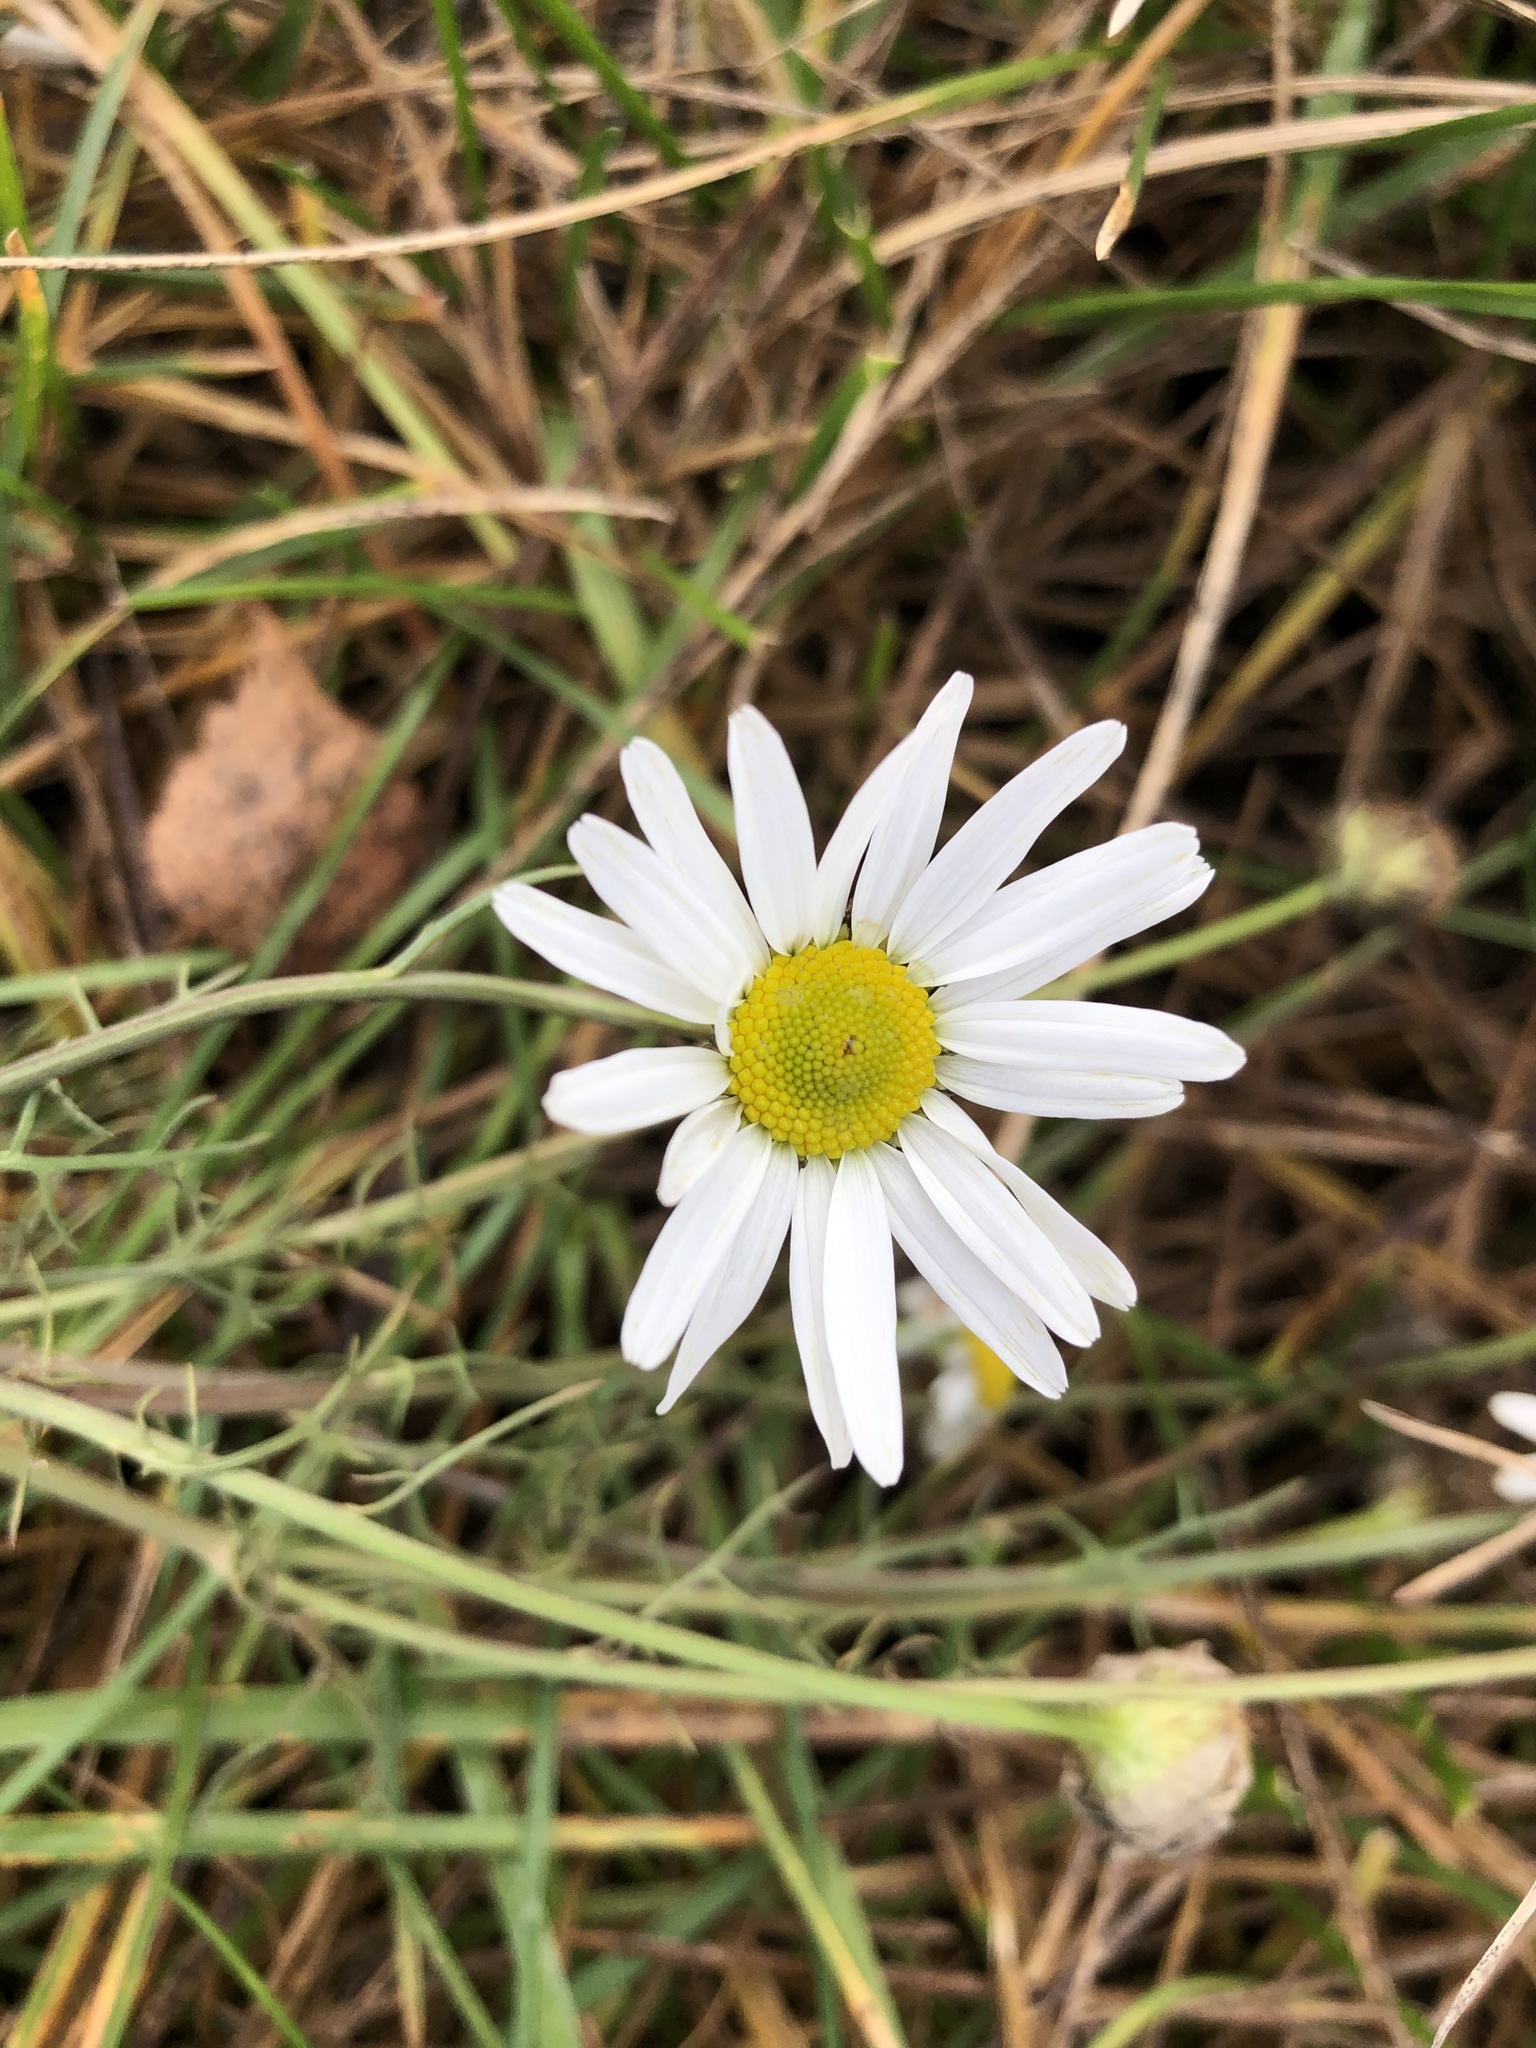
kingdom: Plantae
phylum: Tracheophyta
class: Magnoliopsida
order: Asterales
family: Asteraceae
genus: Tripleurospermum
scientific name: Tripleurospermum inodorum
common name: Scentless mayweed
